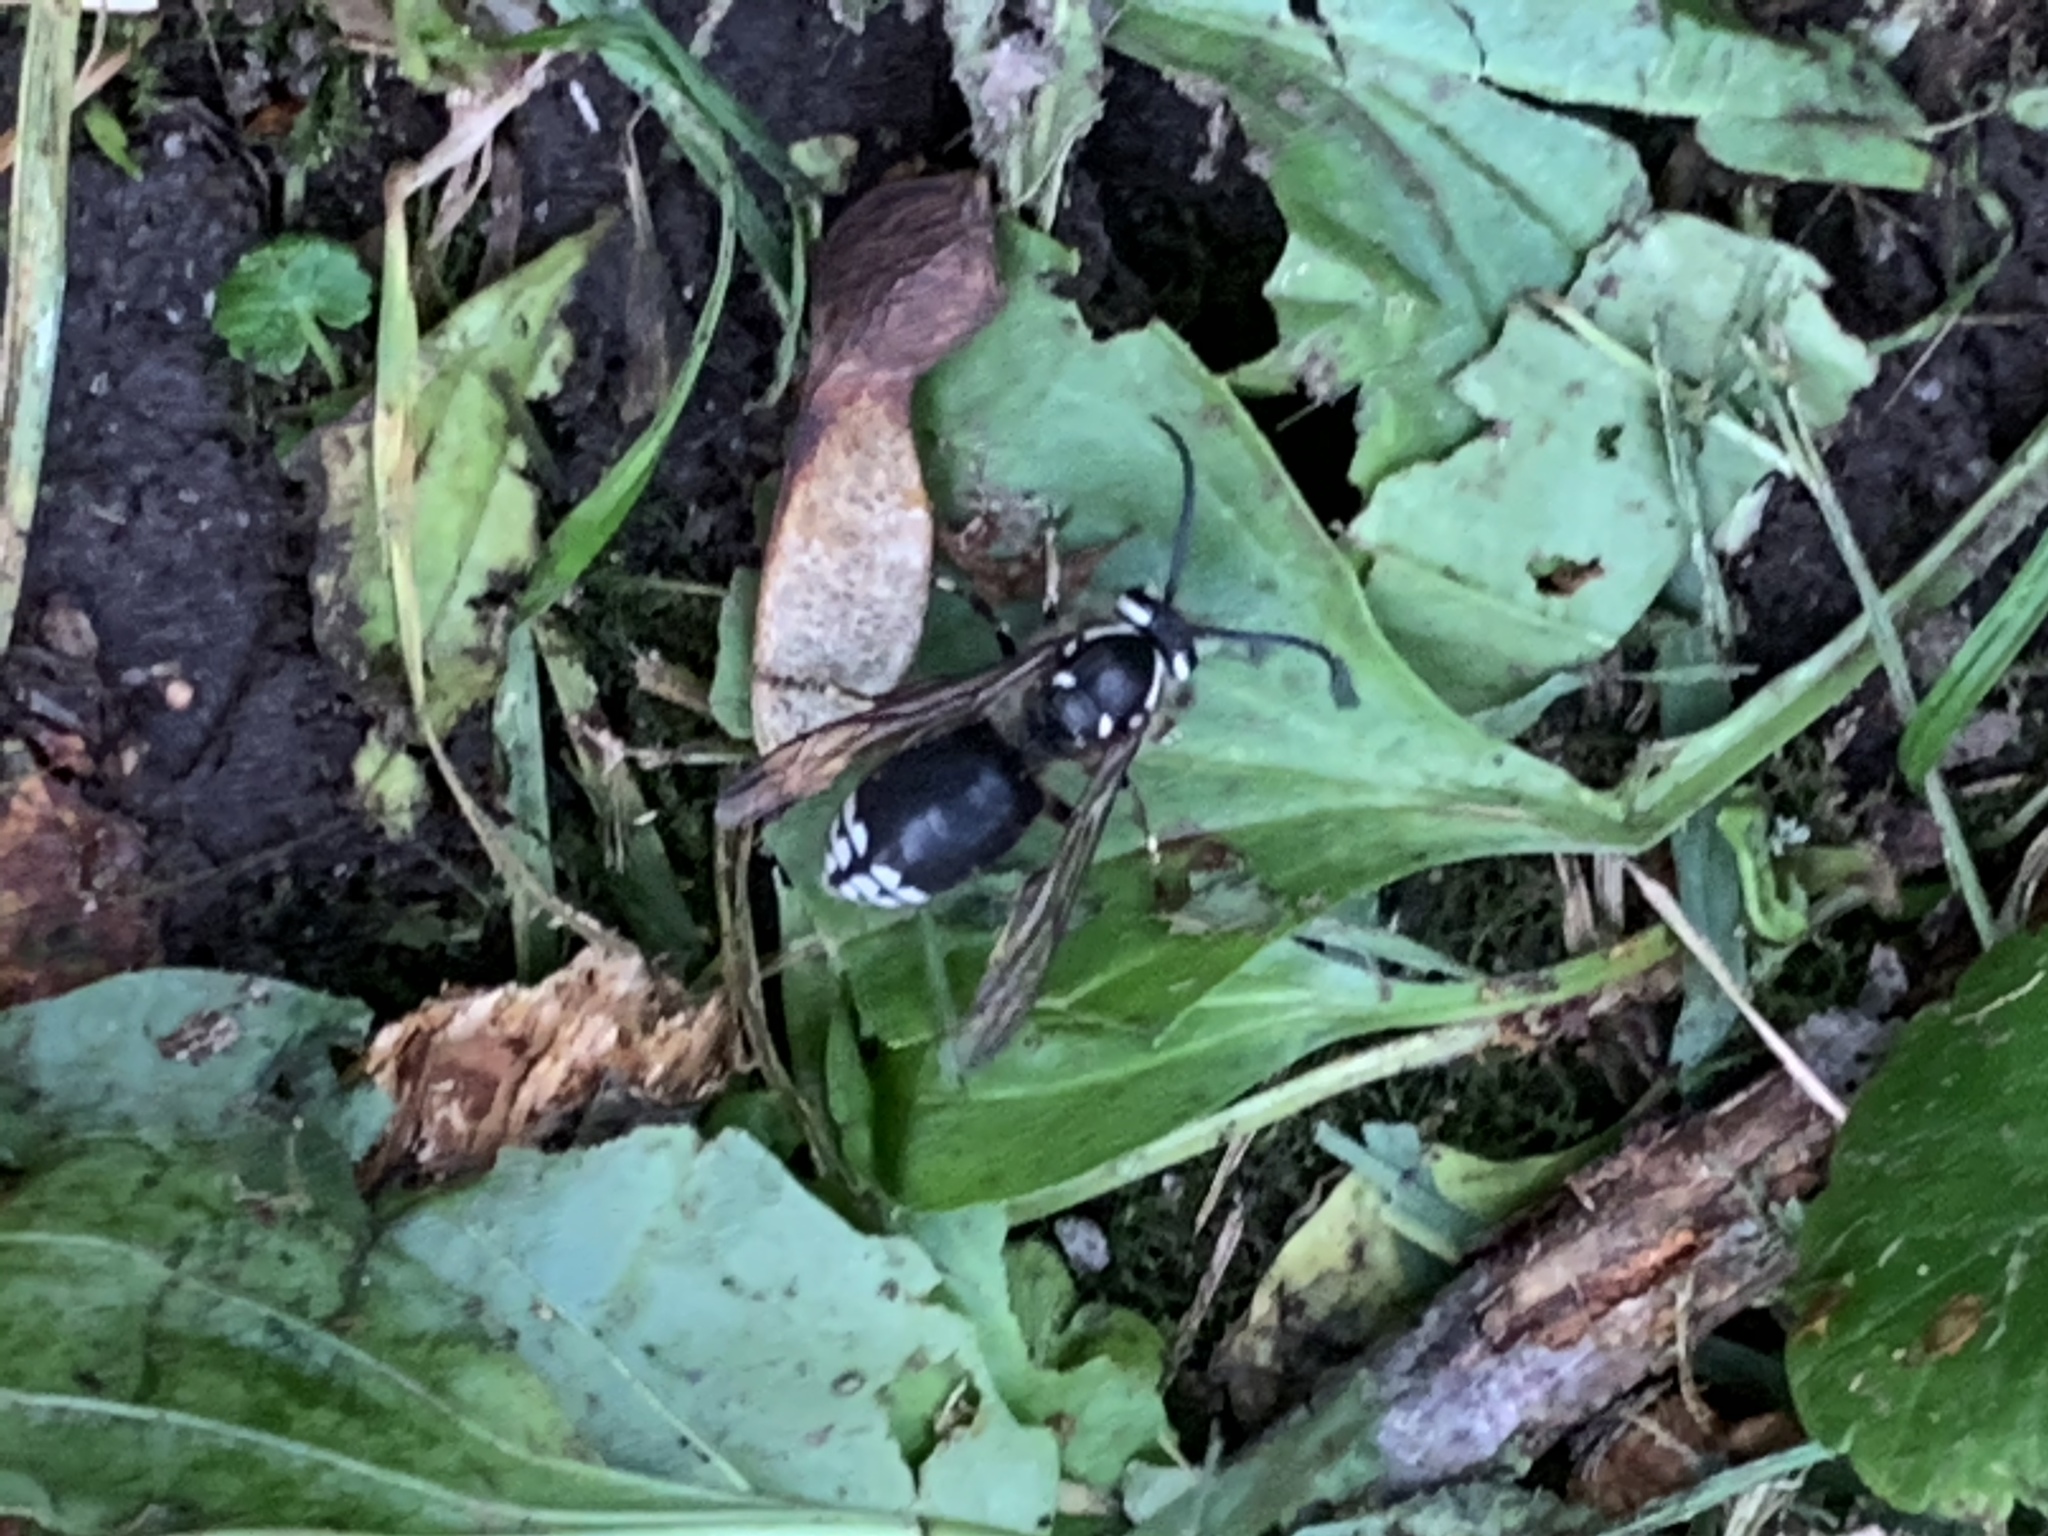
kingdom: Animalia
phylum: Arthropoda
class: Insecta
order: Hymenoptera
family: Vespidae
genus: Dolichovespula
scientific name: Dolichovespula maculata
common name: Bald-faced hornet
